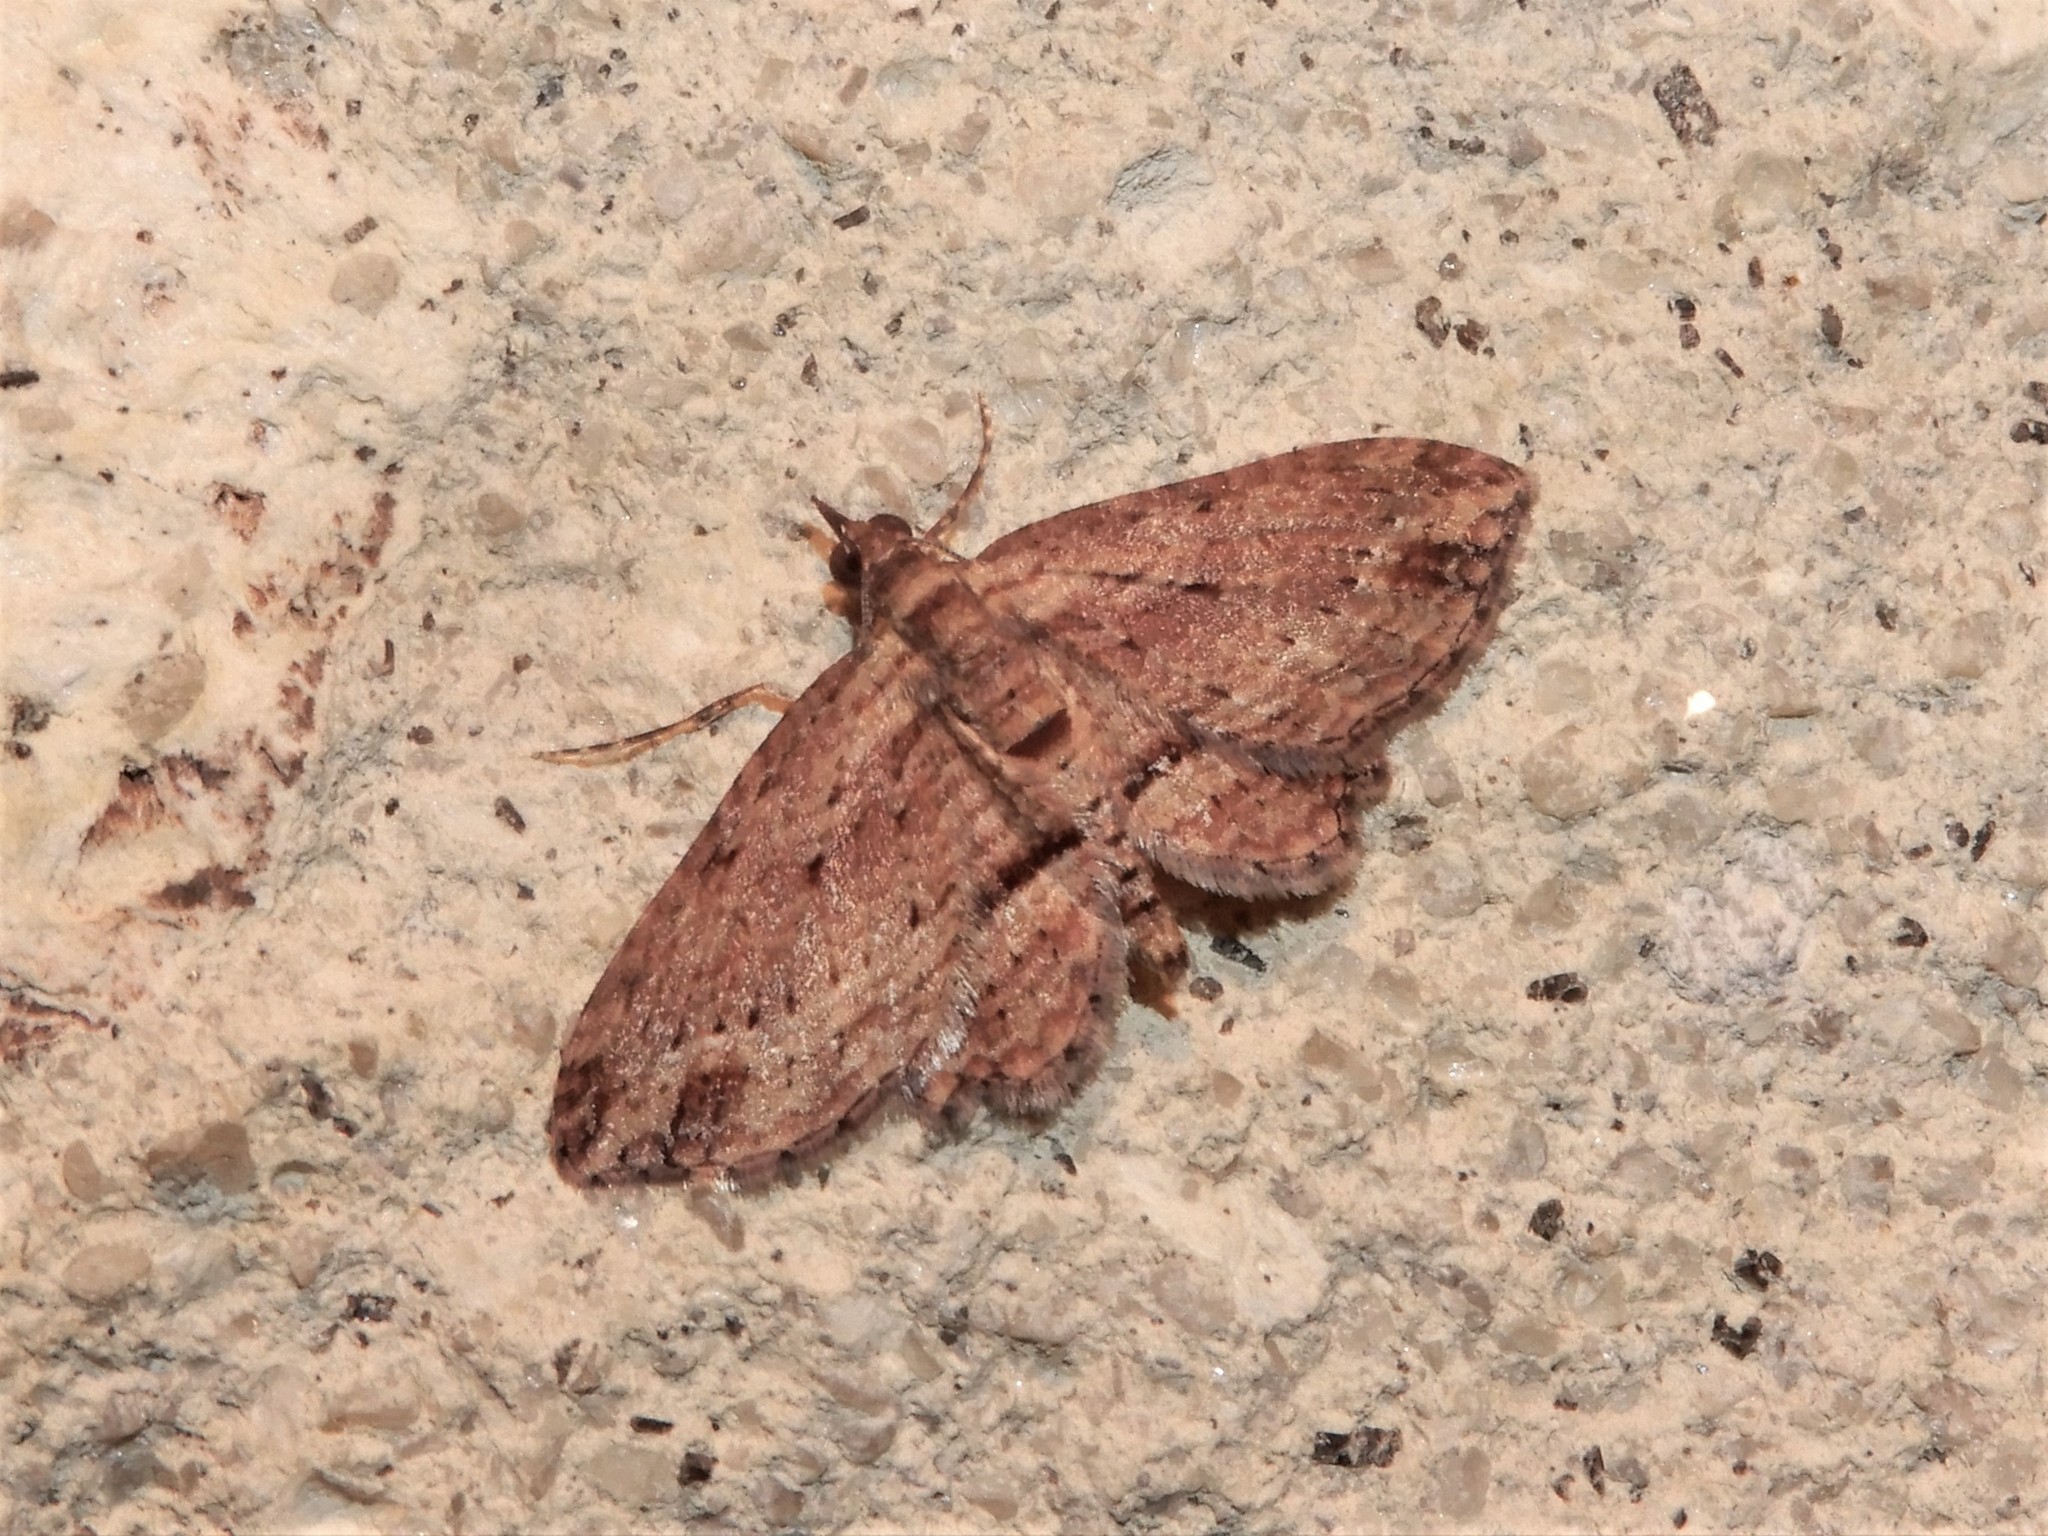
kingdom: Animalia
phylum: Arthropoda
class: Insecta
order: Lepidoptera
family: Geometridae
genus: Chloroclystis
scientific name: Chloroclystis filata
